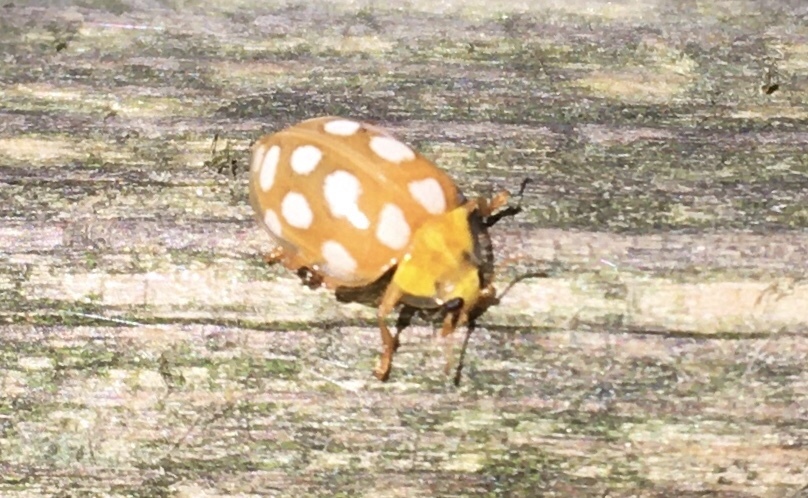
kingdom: Animalia
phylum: Arthropoda
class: Insecta
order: Coleoptera
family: Coccinellidae
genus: Halyzia
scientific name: Halyzia sedecimguttata
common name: Orange ladybird
